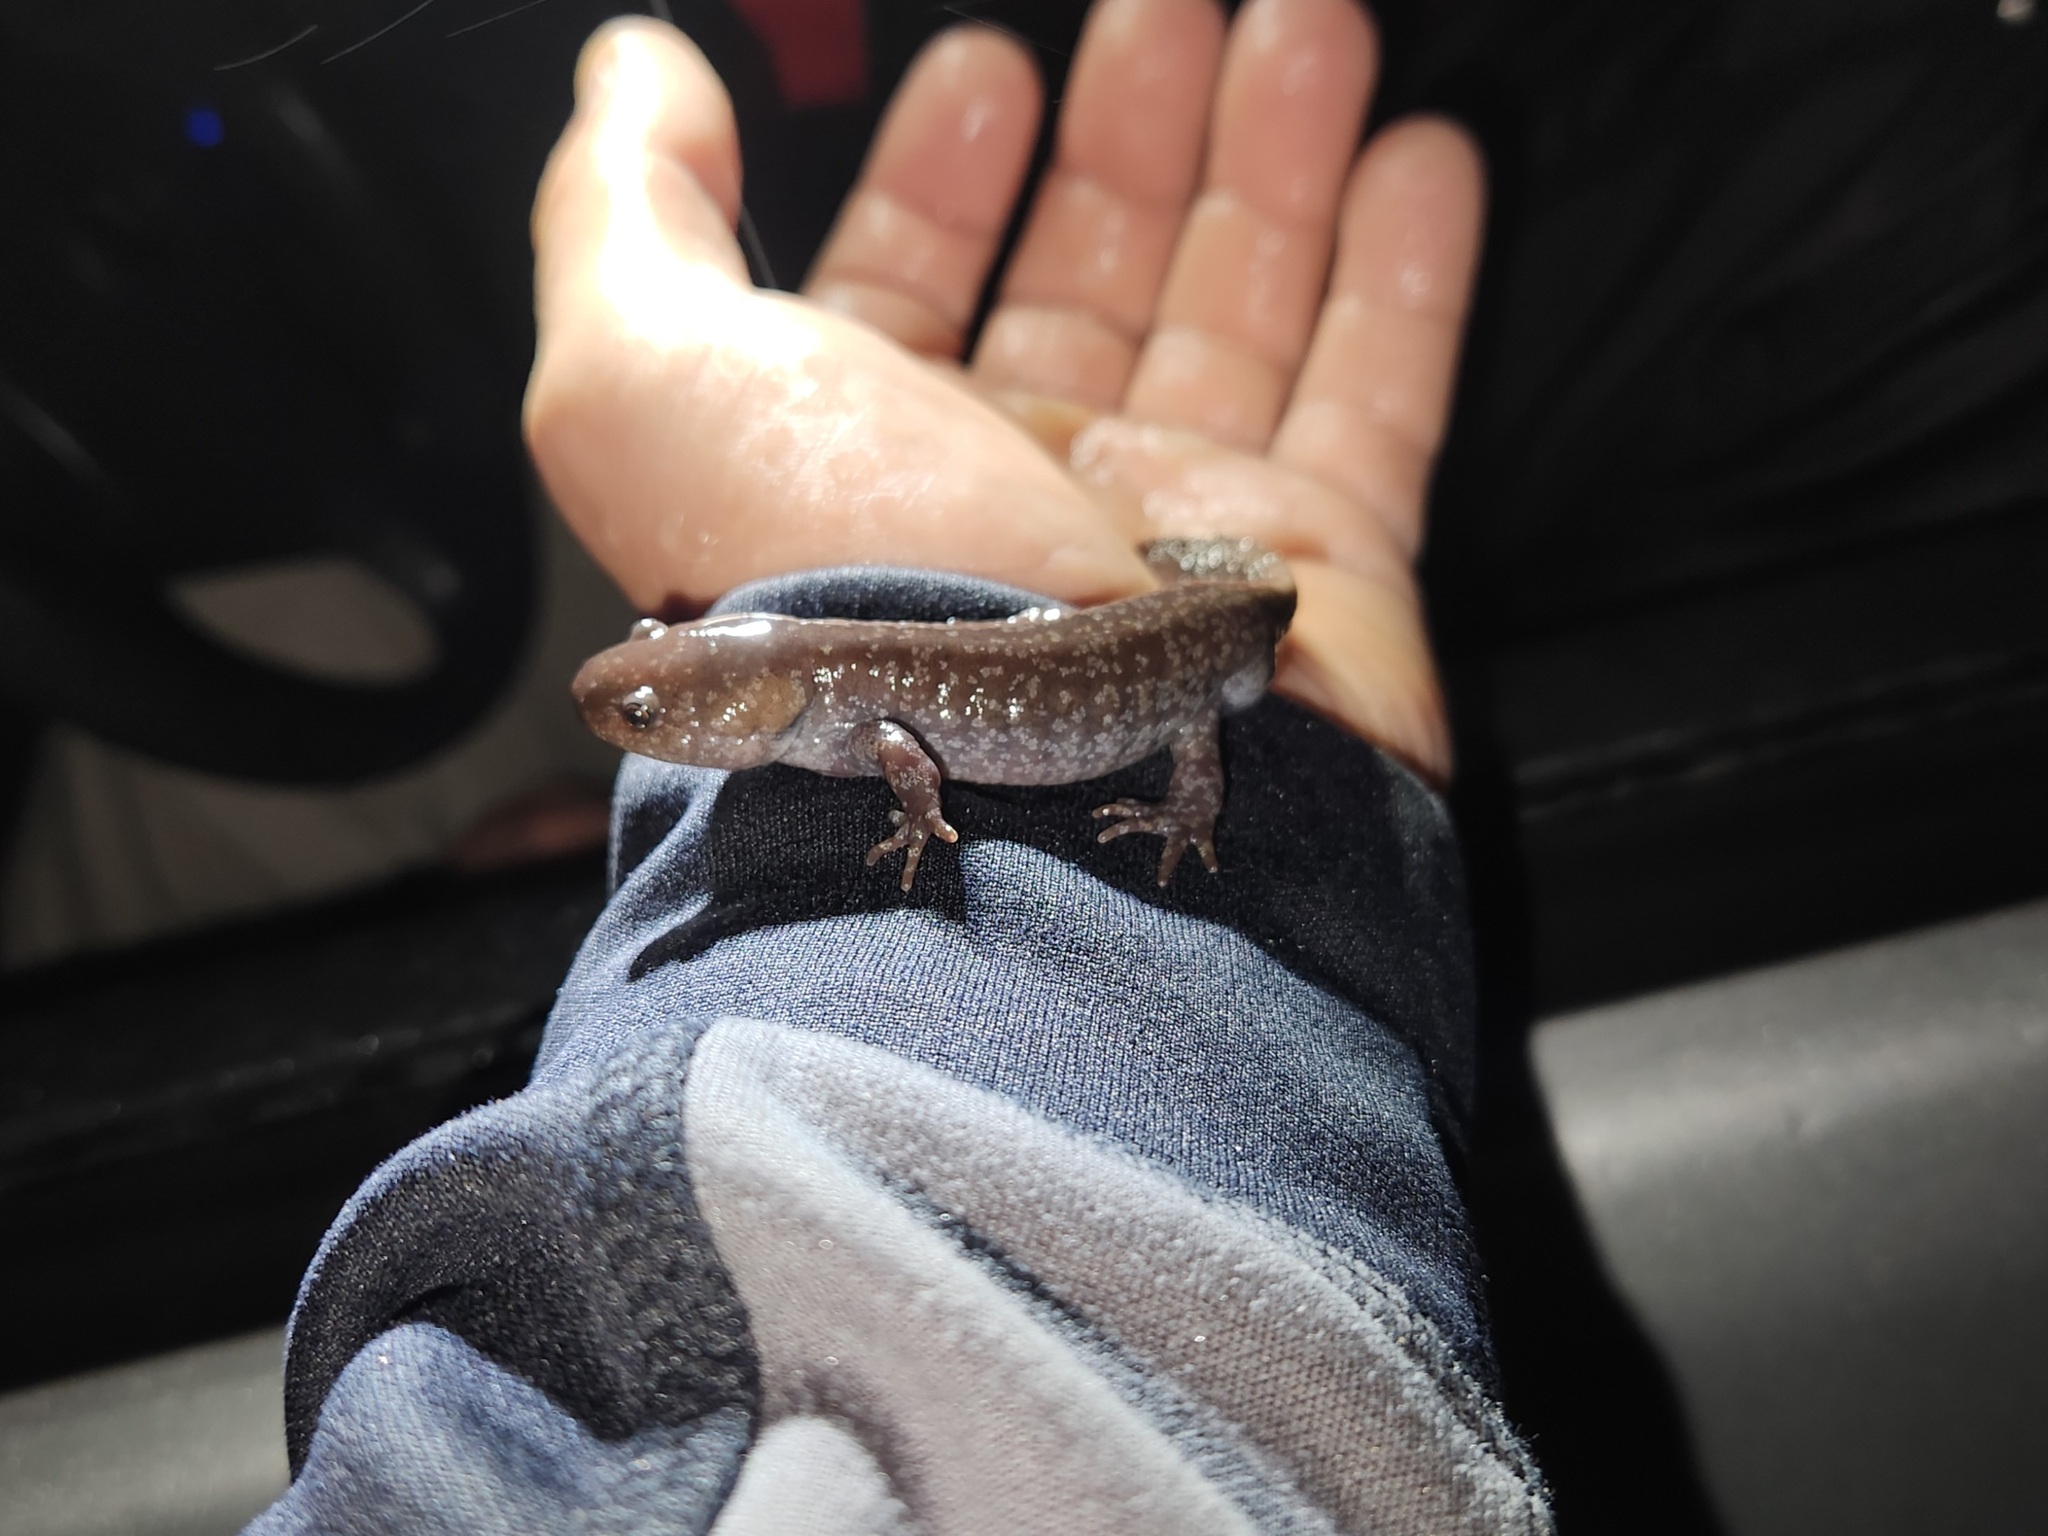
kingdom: Animalia
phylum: Chordata
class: Amphibia
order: Caudata
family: Ambystomatidae
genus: Ambystoma
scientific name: Ambystoma talpoideum
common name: Mole salamander
